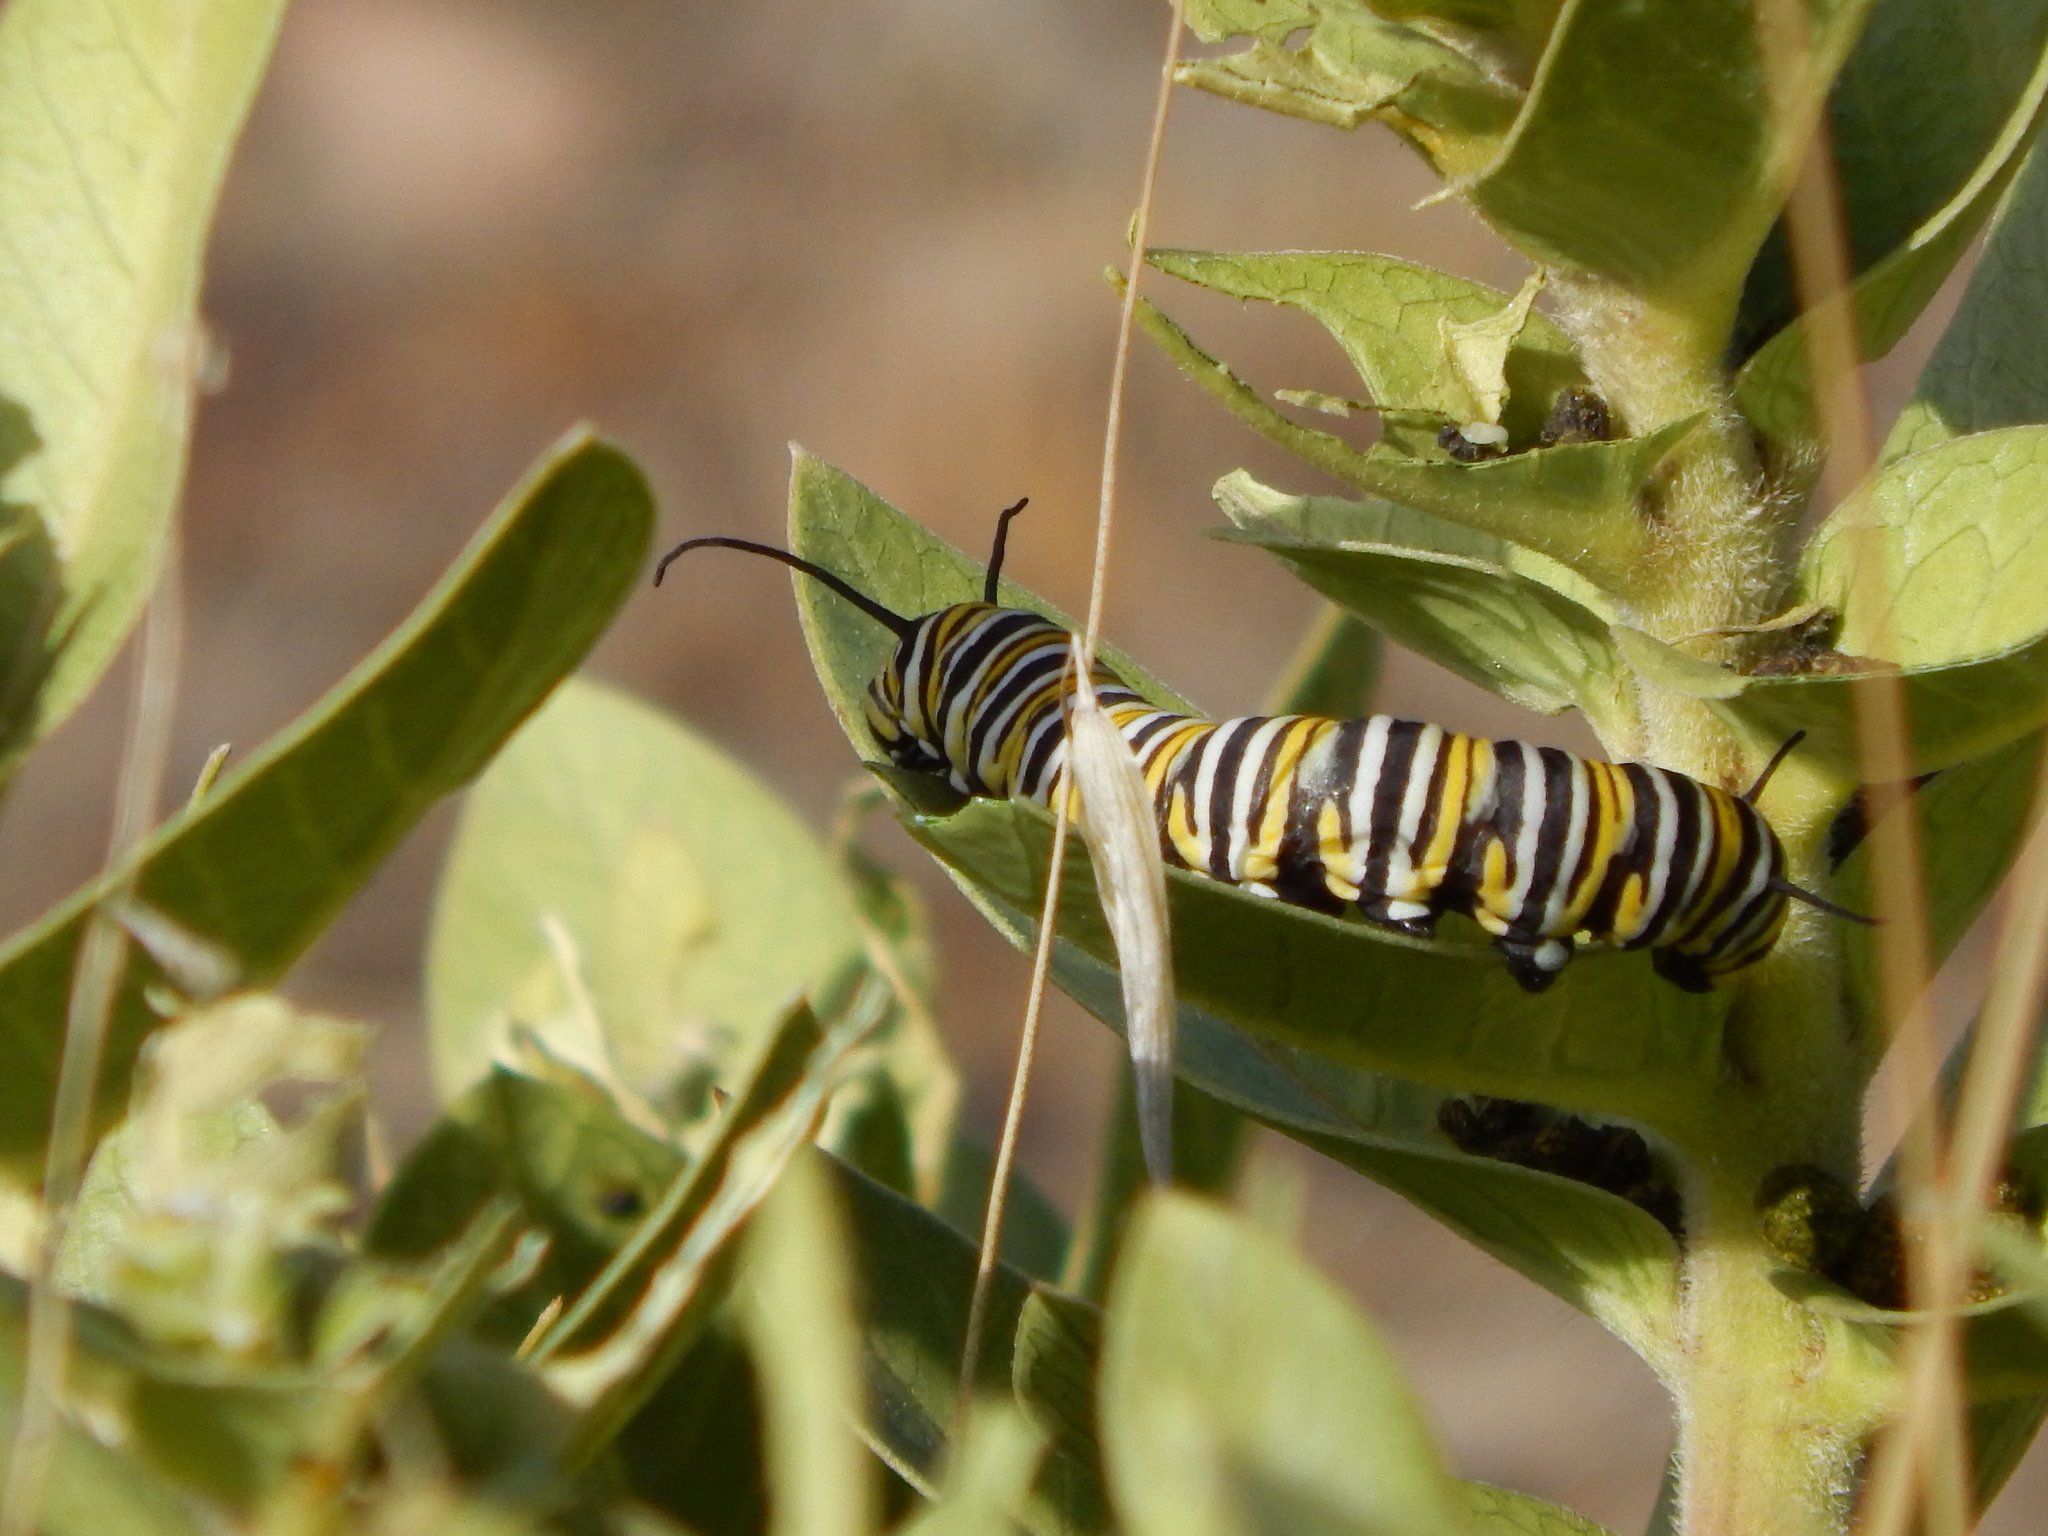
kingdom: Animalia
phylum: Arthropoda
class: Insecta
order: Lepidoptera
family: Nymphalidae
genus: Danaus
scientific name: Danaus plexippus
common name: Monarch
